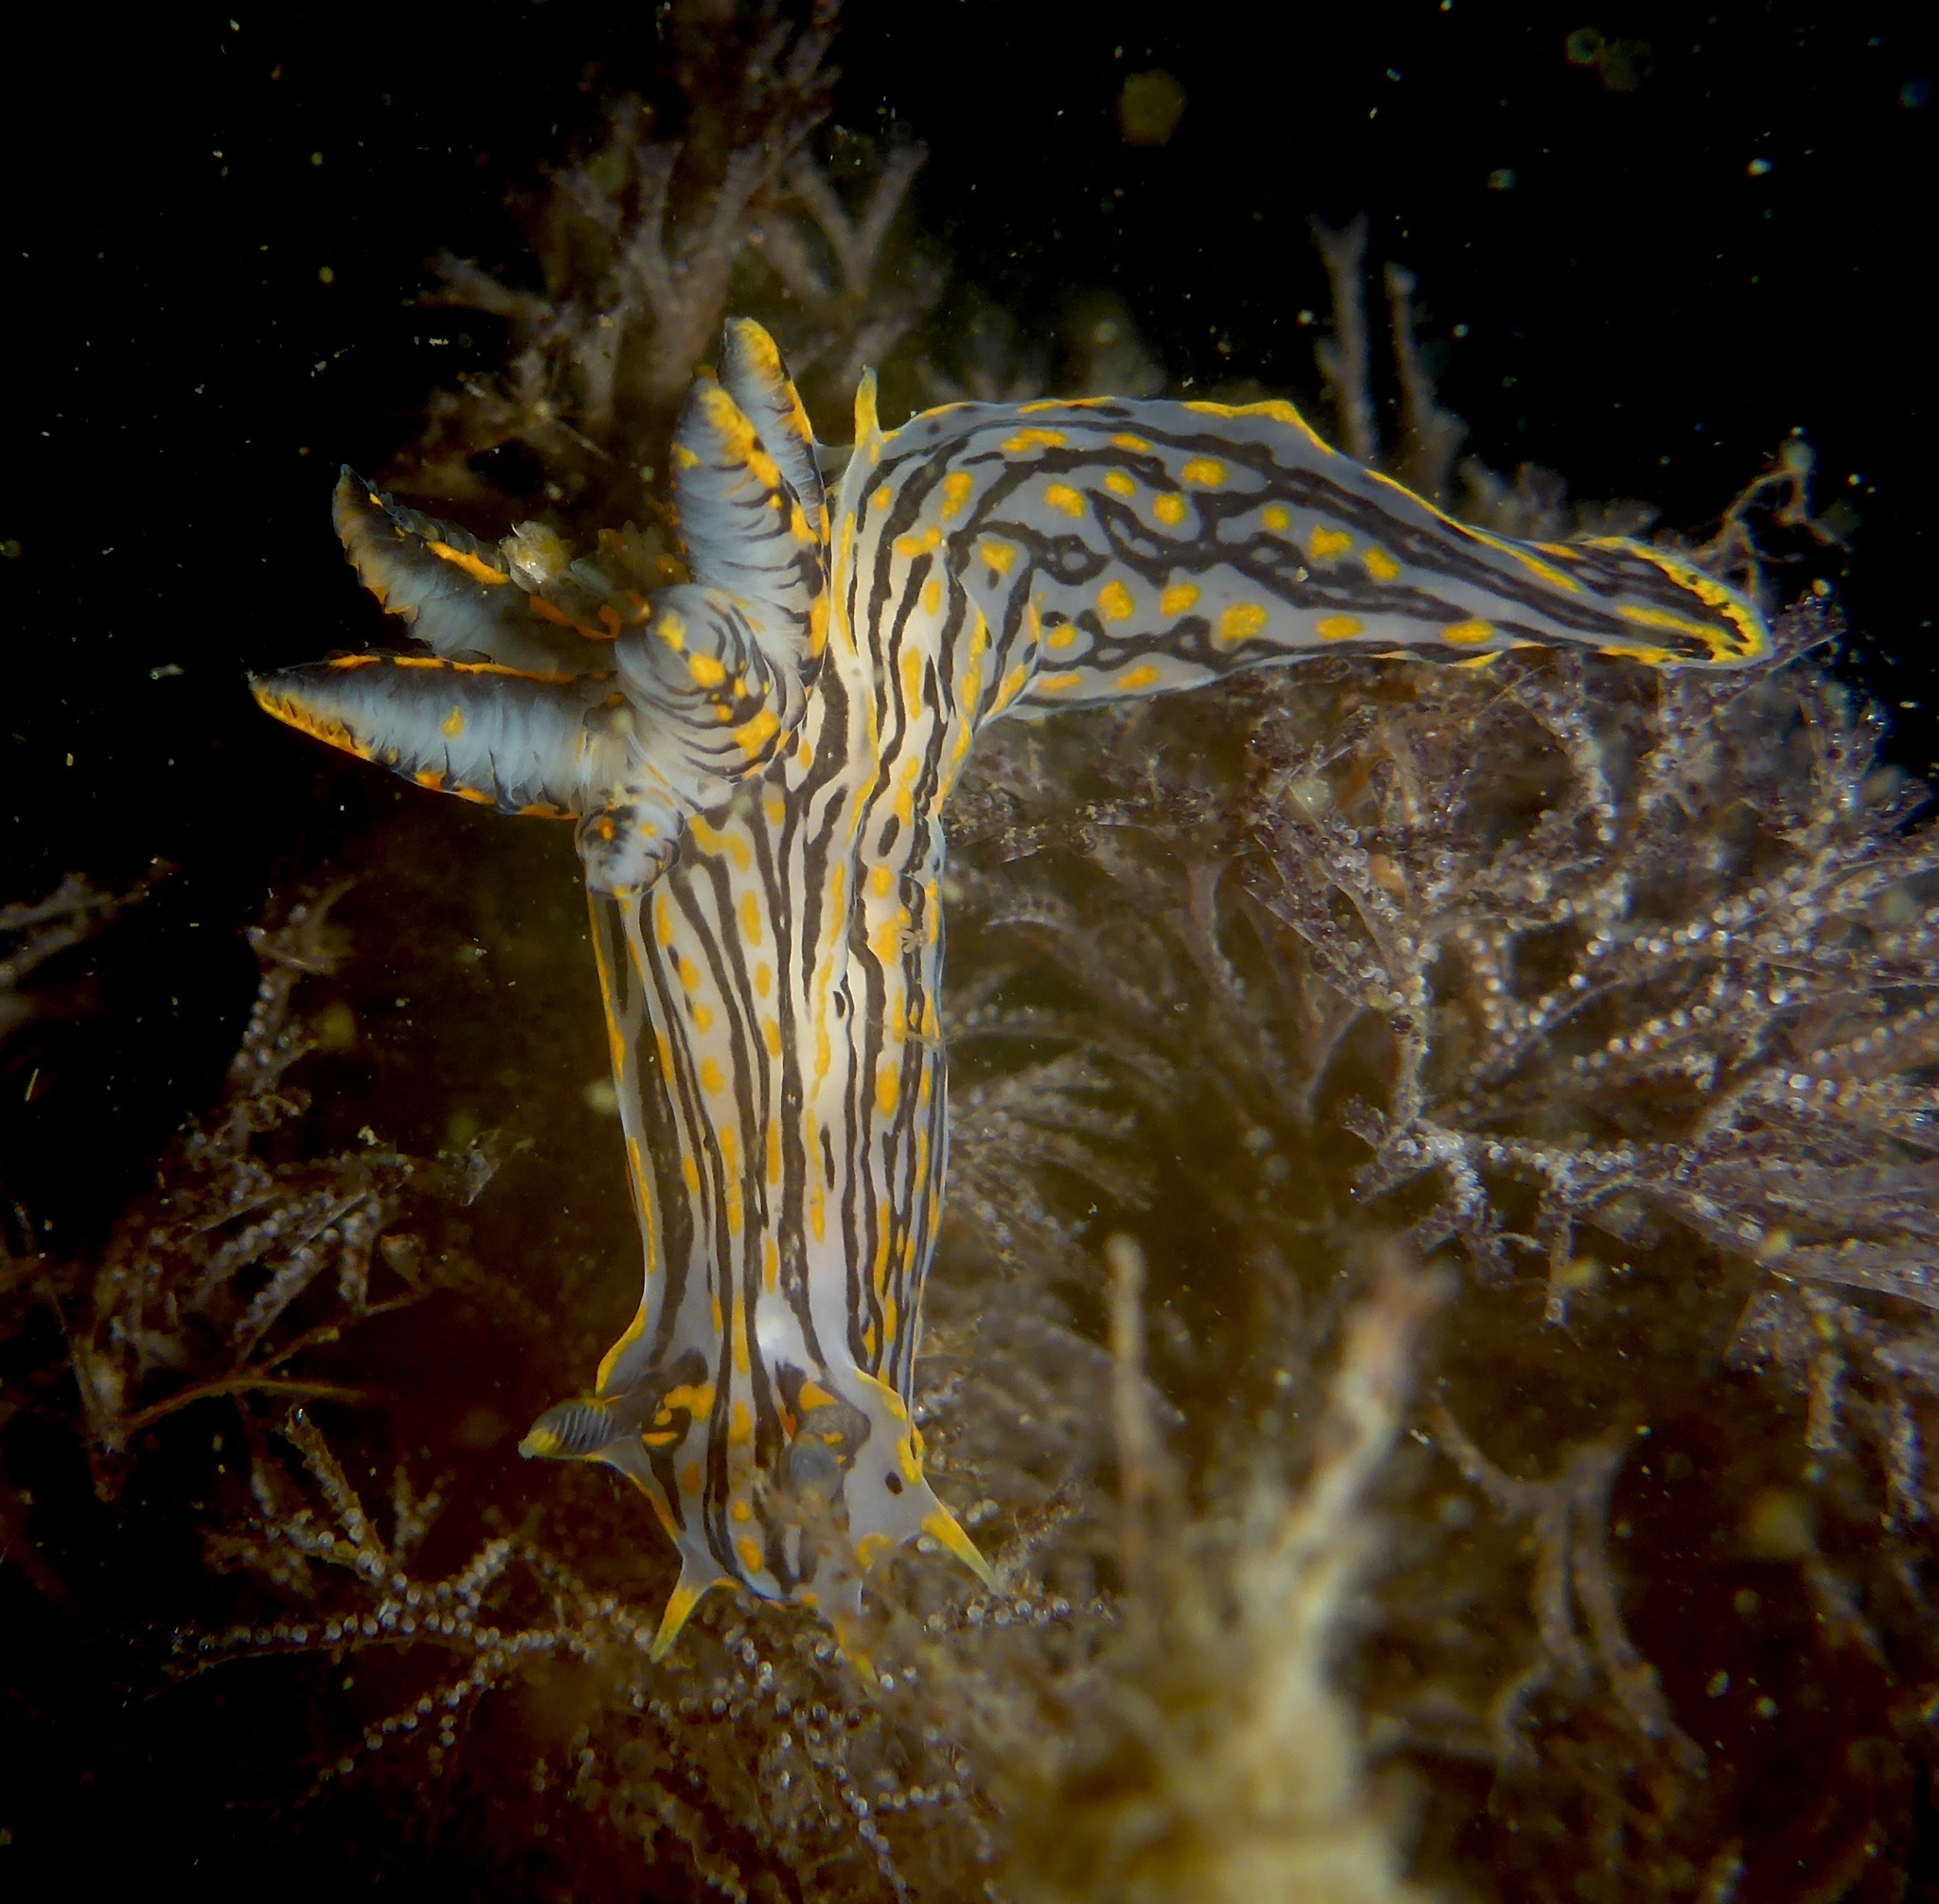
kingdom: Animalia
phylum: Mollusca
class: Gastropoda
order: Nudibranchia
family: Polyceridae
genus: Polycera
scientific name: Polycera atra
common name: Orange-spike polycera
